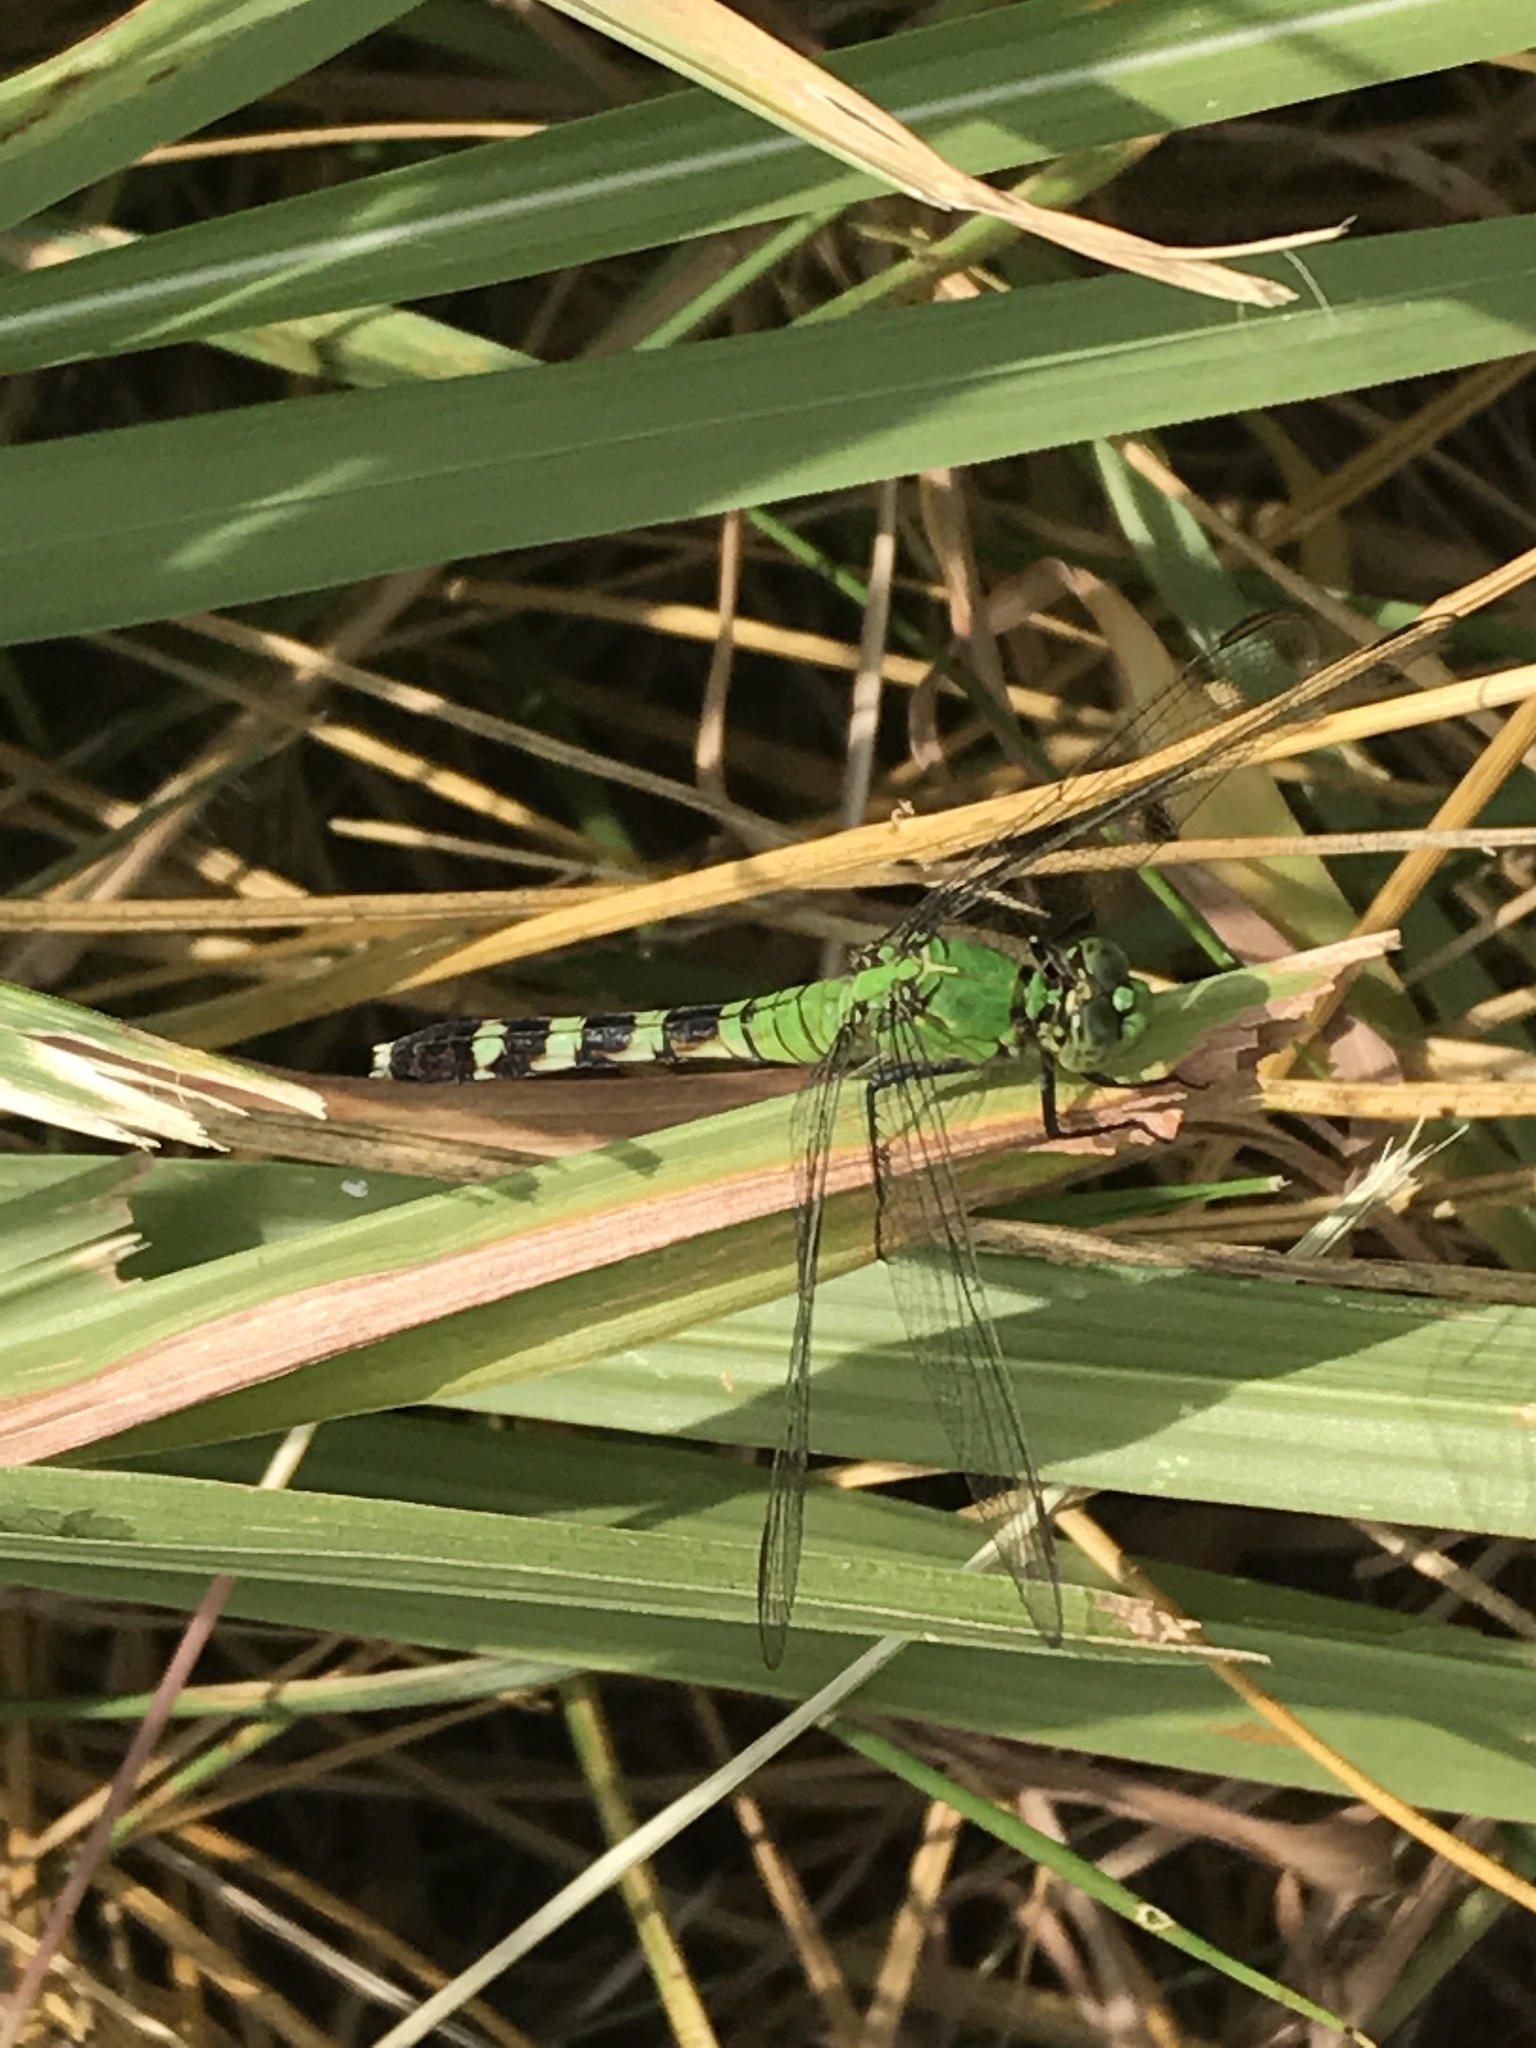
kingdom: Animalia
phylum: Arthropoda
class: Insecta
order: Odonata
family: Libellulidae
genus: Erythemis
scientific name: Erythemis simplicicollis
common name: Eastern pondhawk
